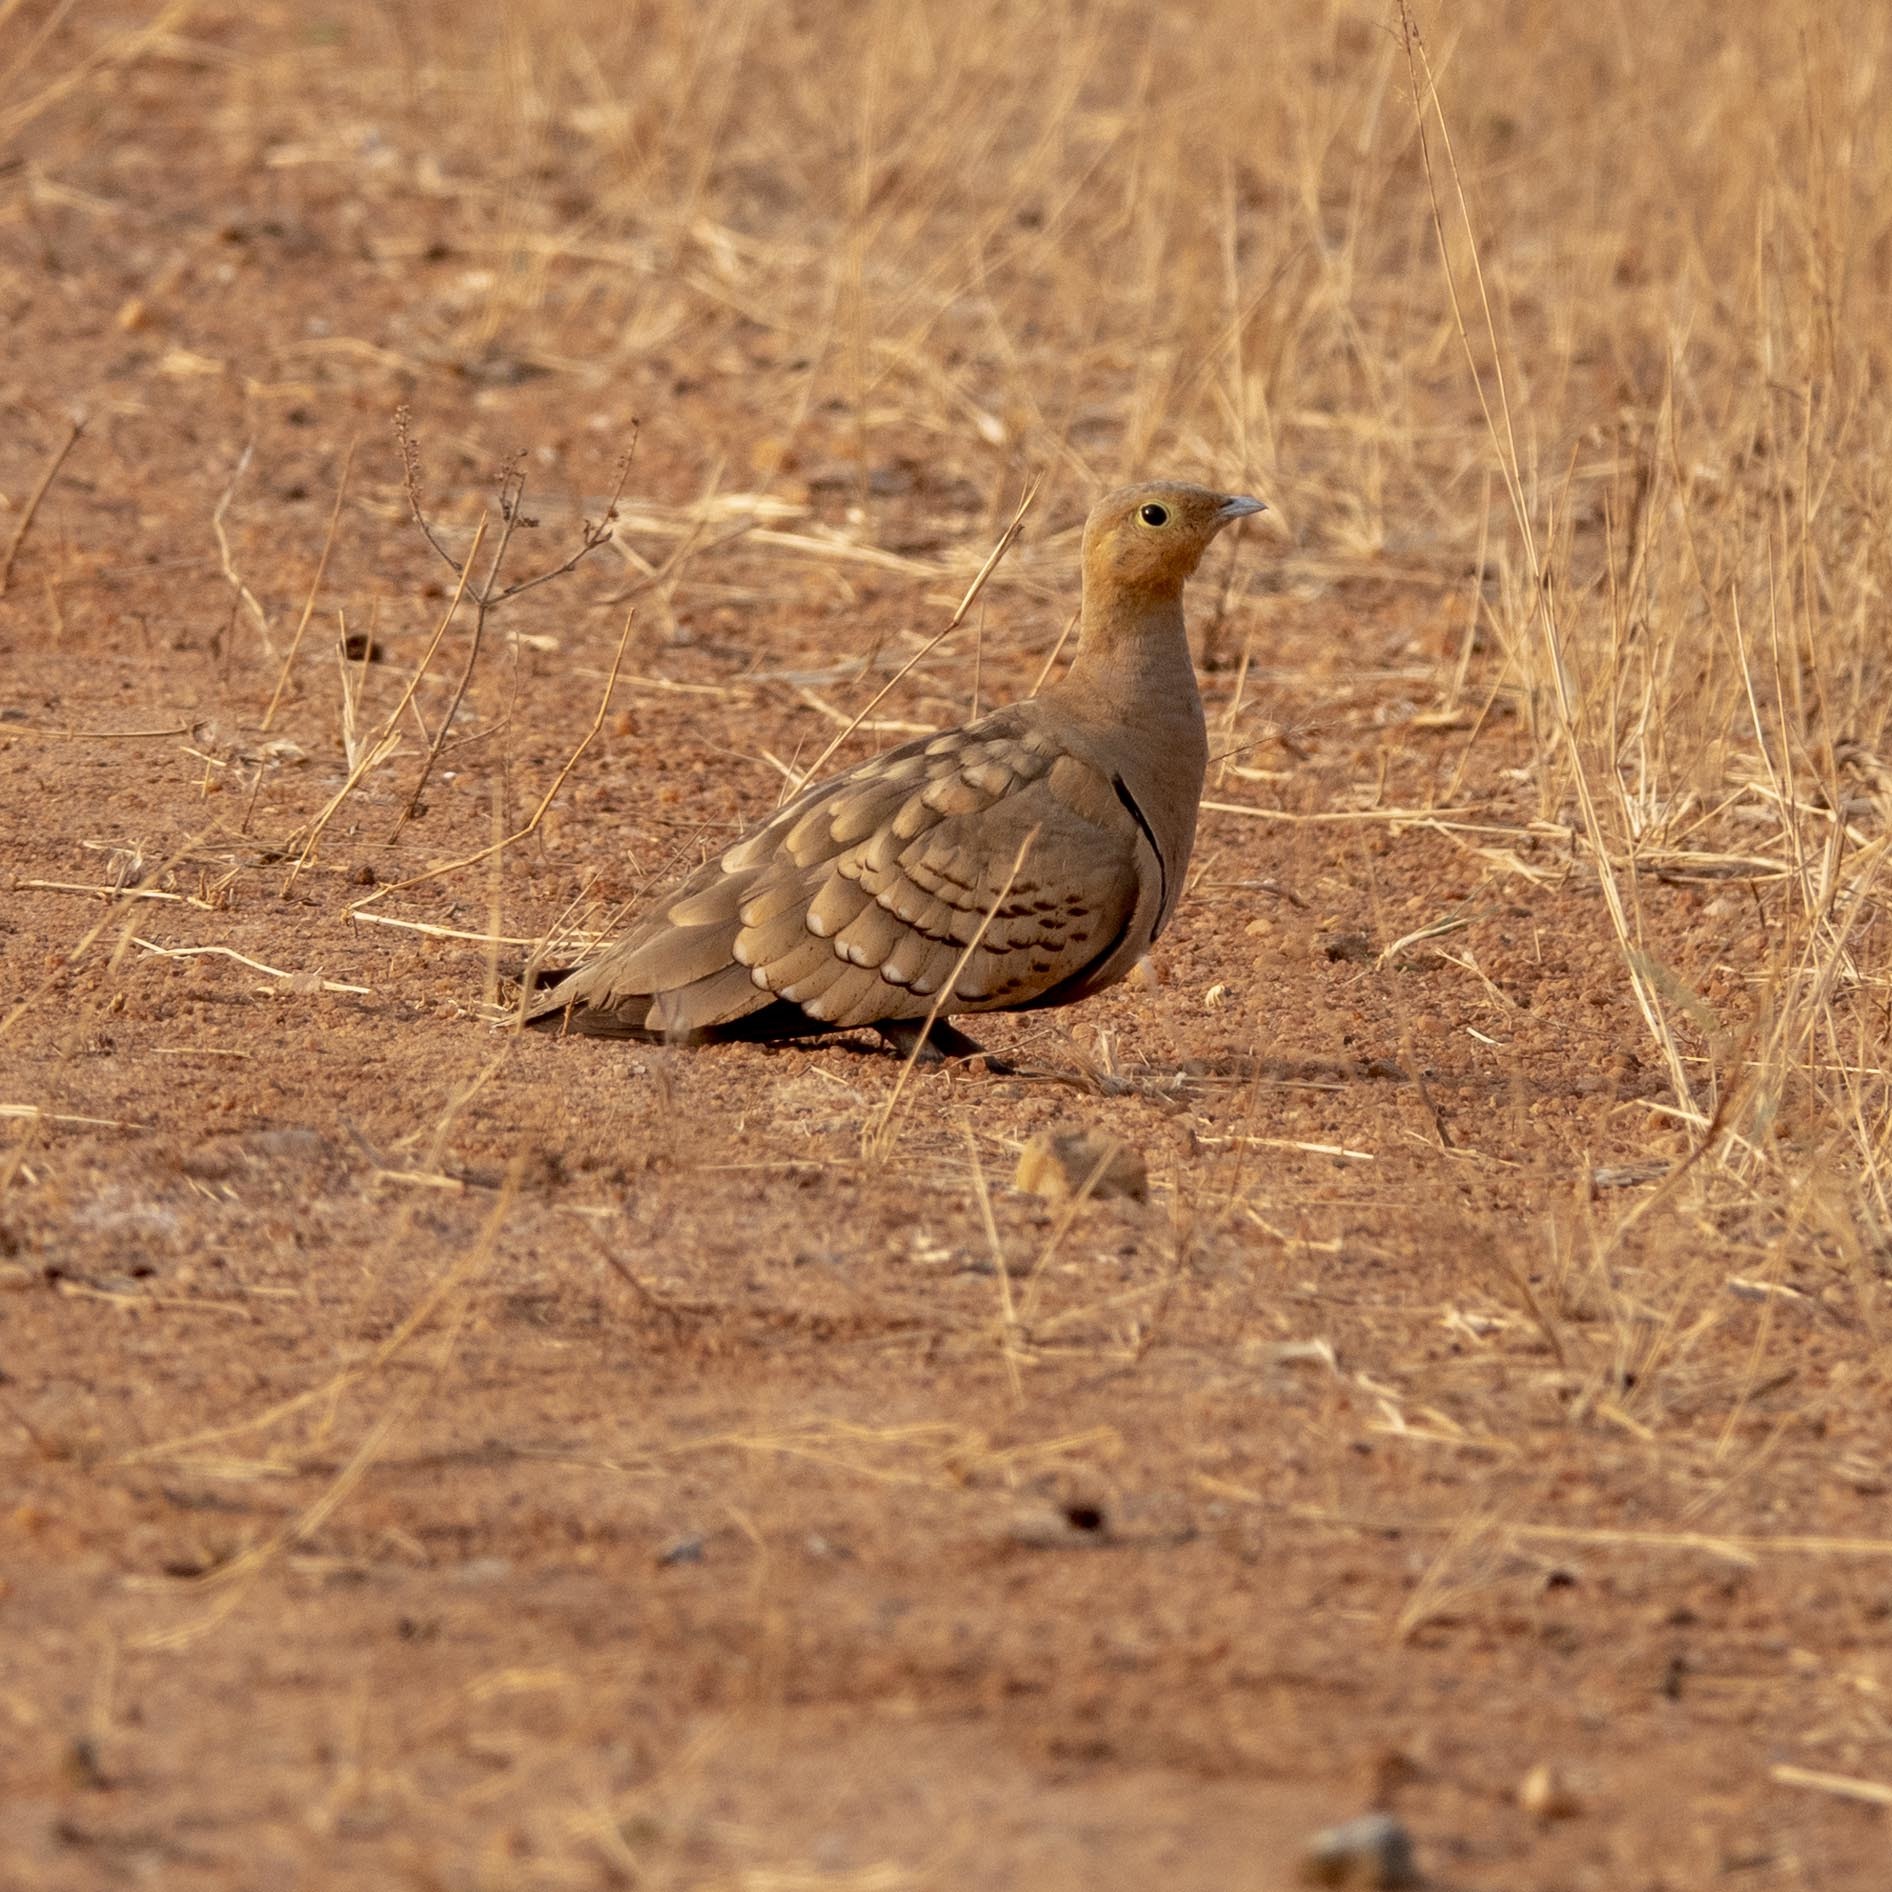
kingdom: Animalia
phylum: Chordata
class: Aves
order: Pteroclidiformes
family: Pteroclididae
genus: Pterocles
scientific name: Pterocles exustus
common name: Chestnut-bellied sandgrouse
